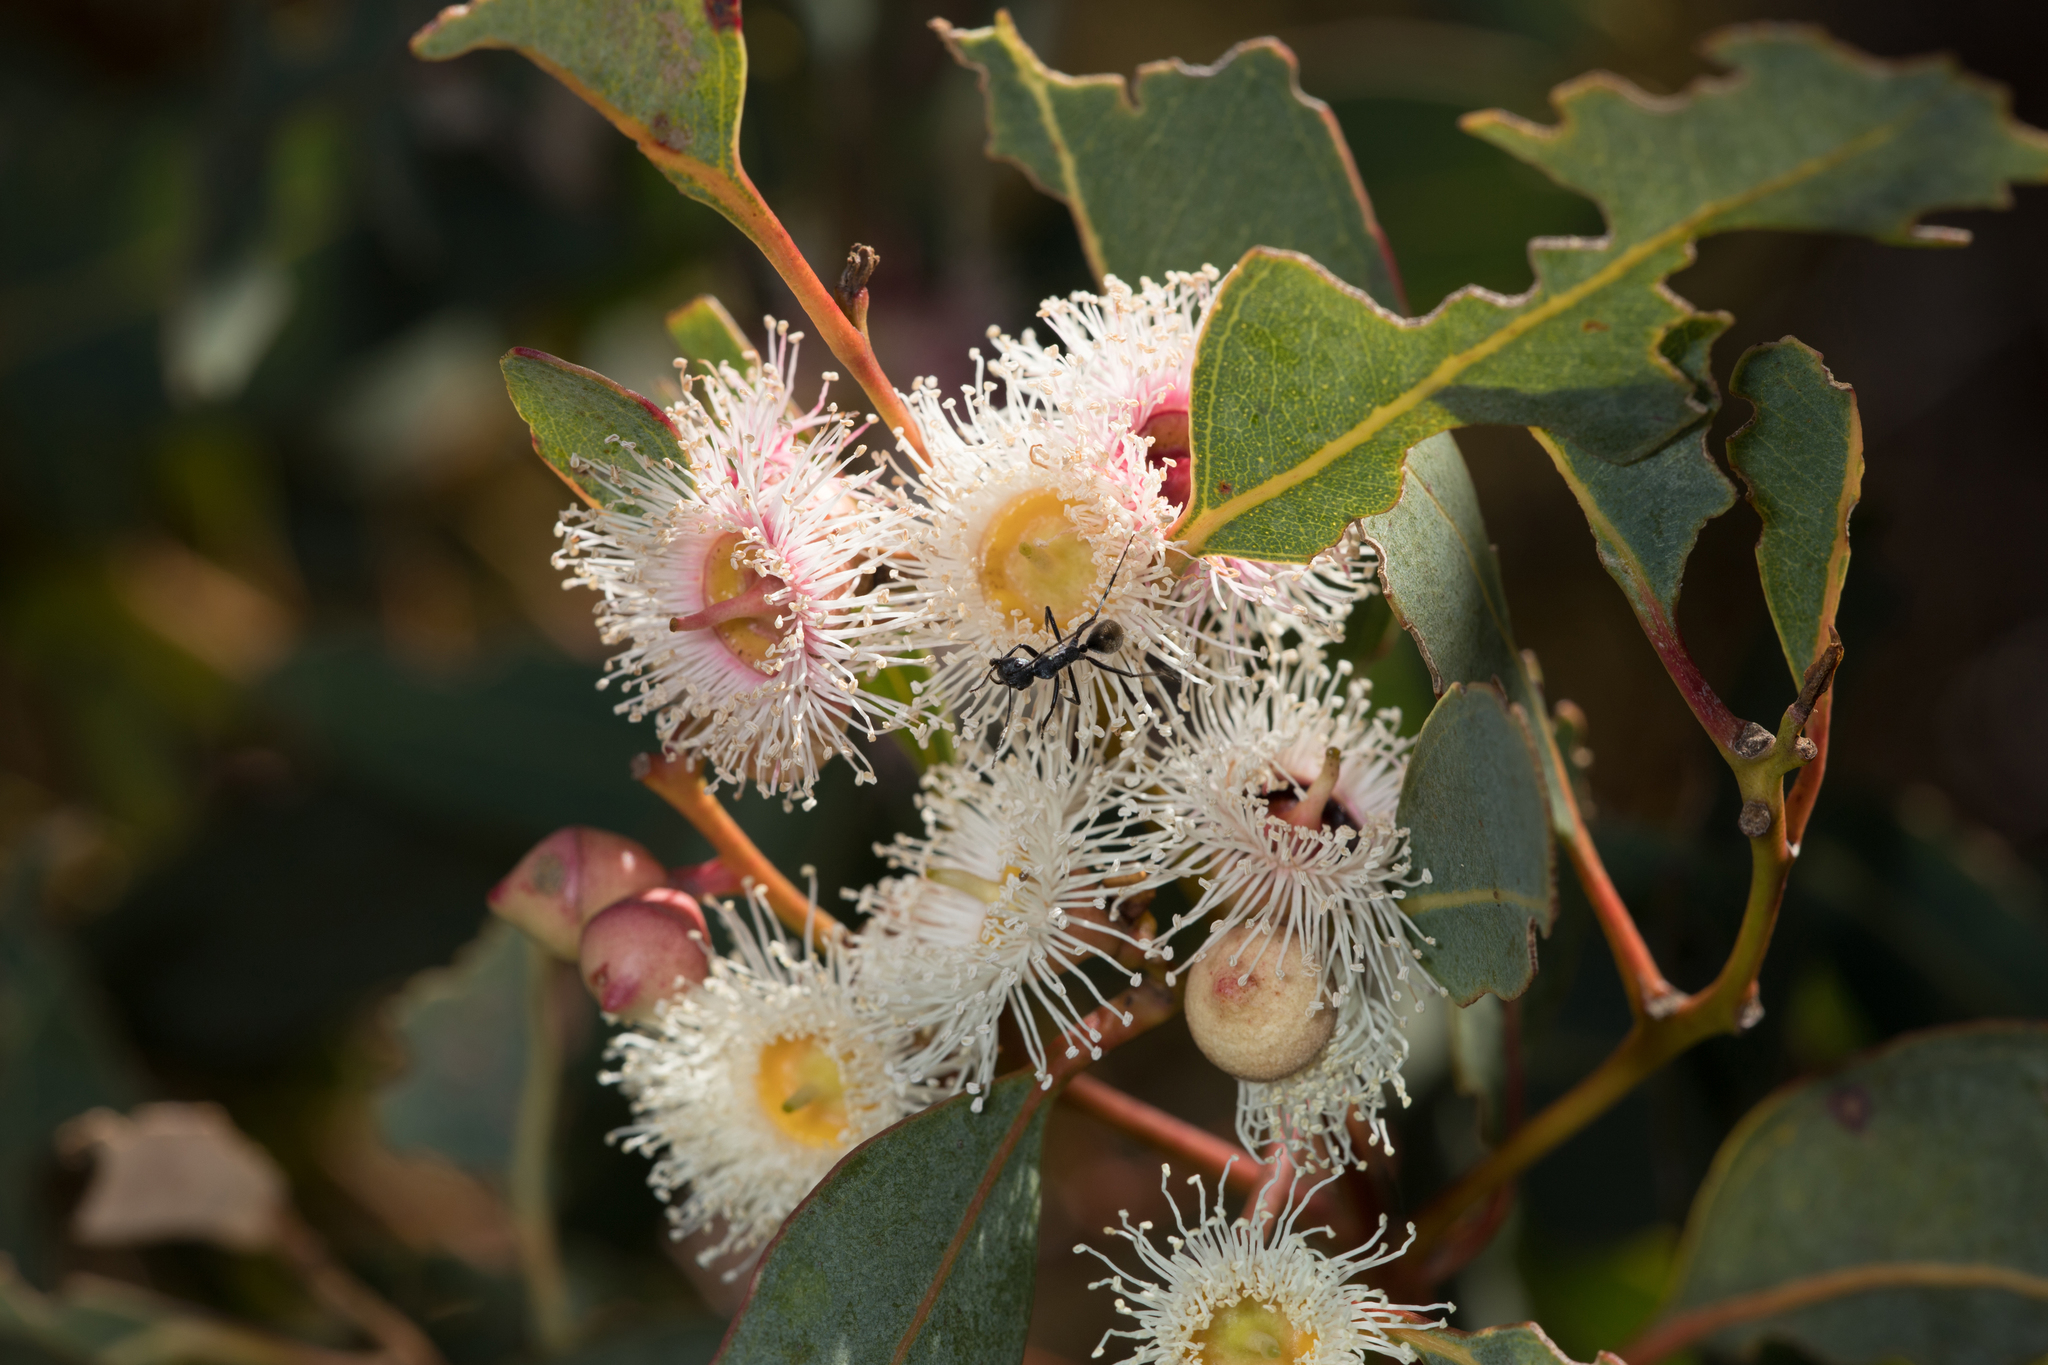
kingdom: Plantae
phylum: Tracheophyta
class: Magnoliopsida
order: Myrtales
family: Myrtaceae
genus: Eucalyptus
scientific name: Eucalyptus cosmophylla
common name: Bog-gum
